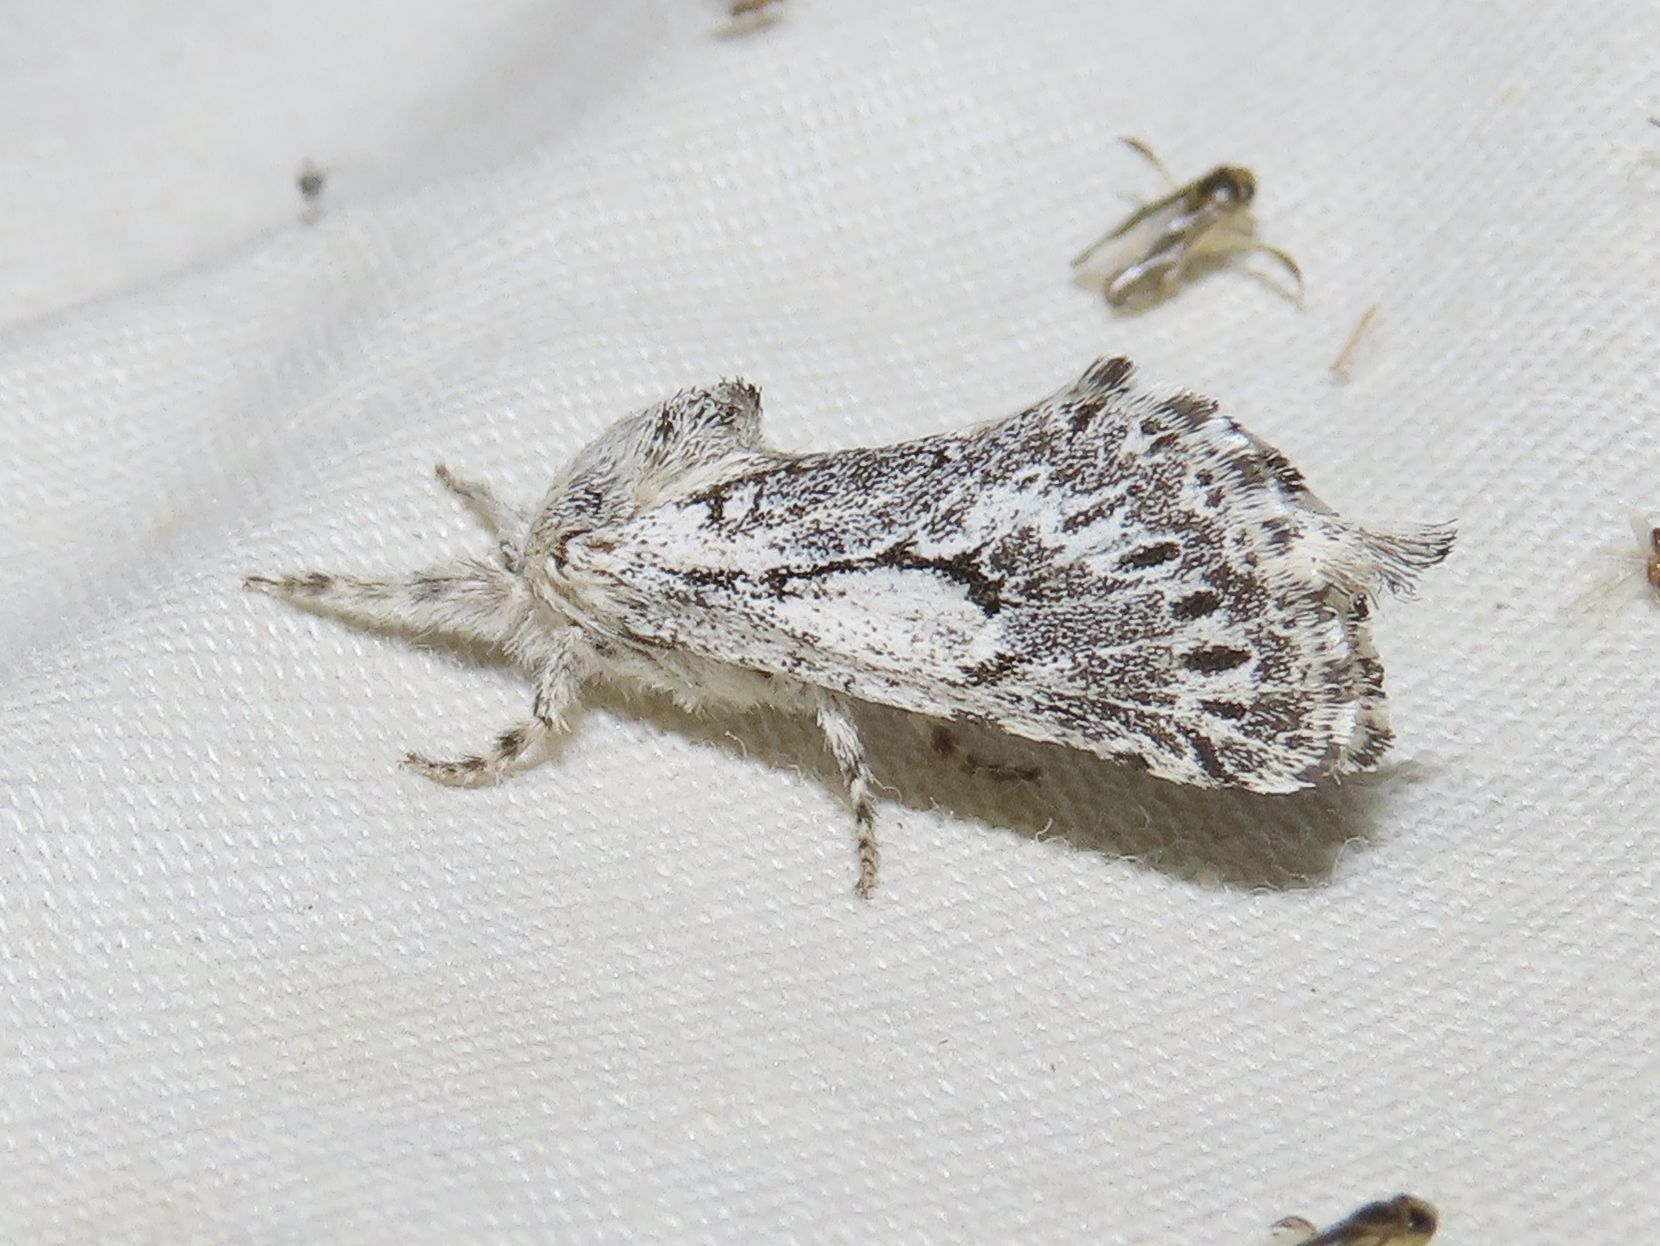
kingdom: Animalia
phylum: Arthropoda
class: Insecta
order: Lepidoptera
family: Cossidae
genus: Givira
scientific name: Givira cleopatra
